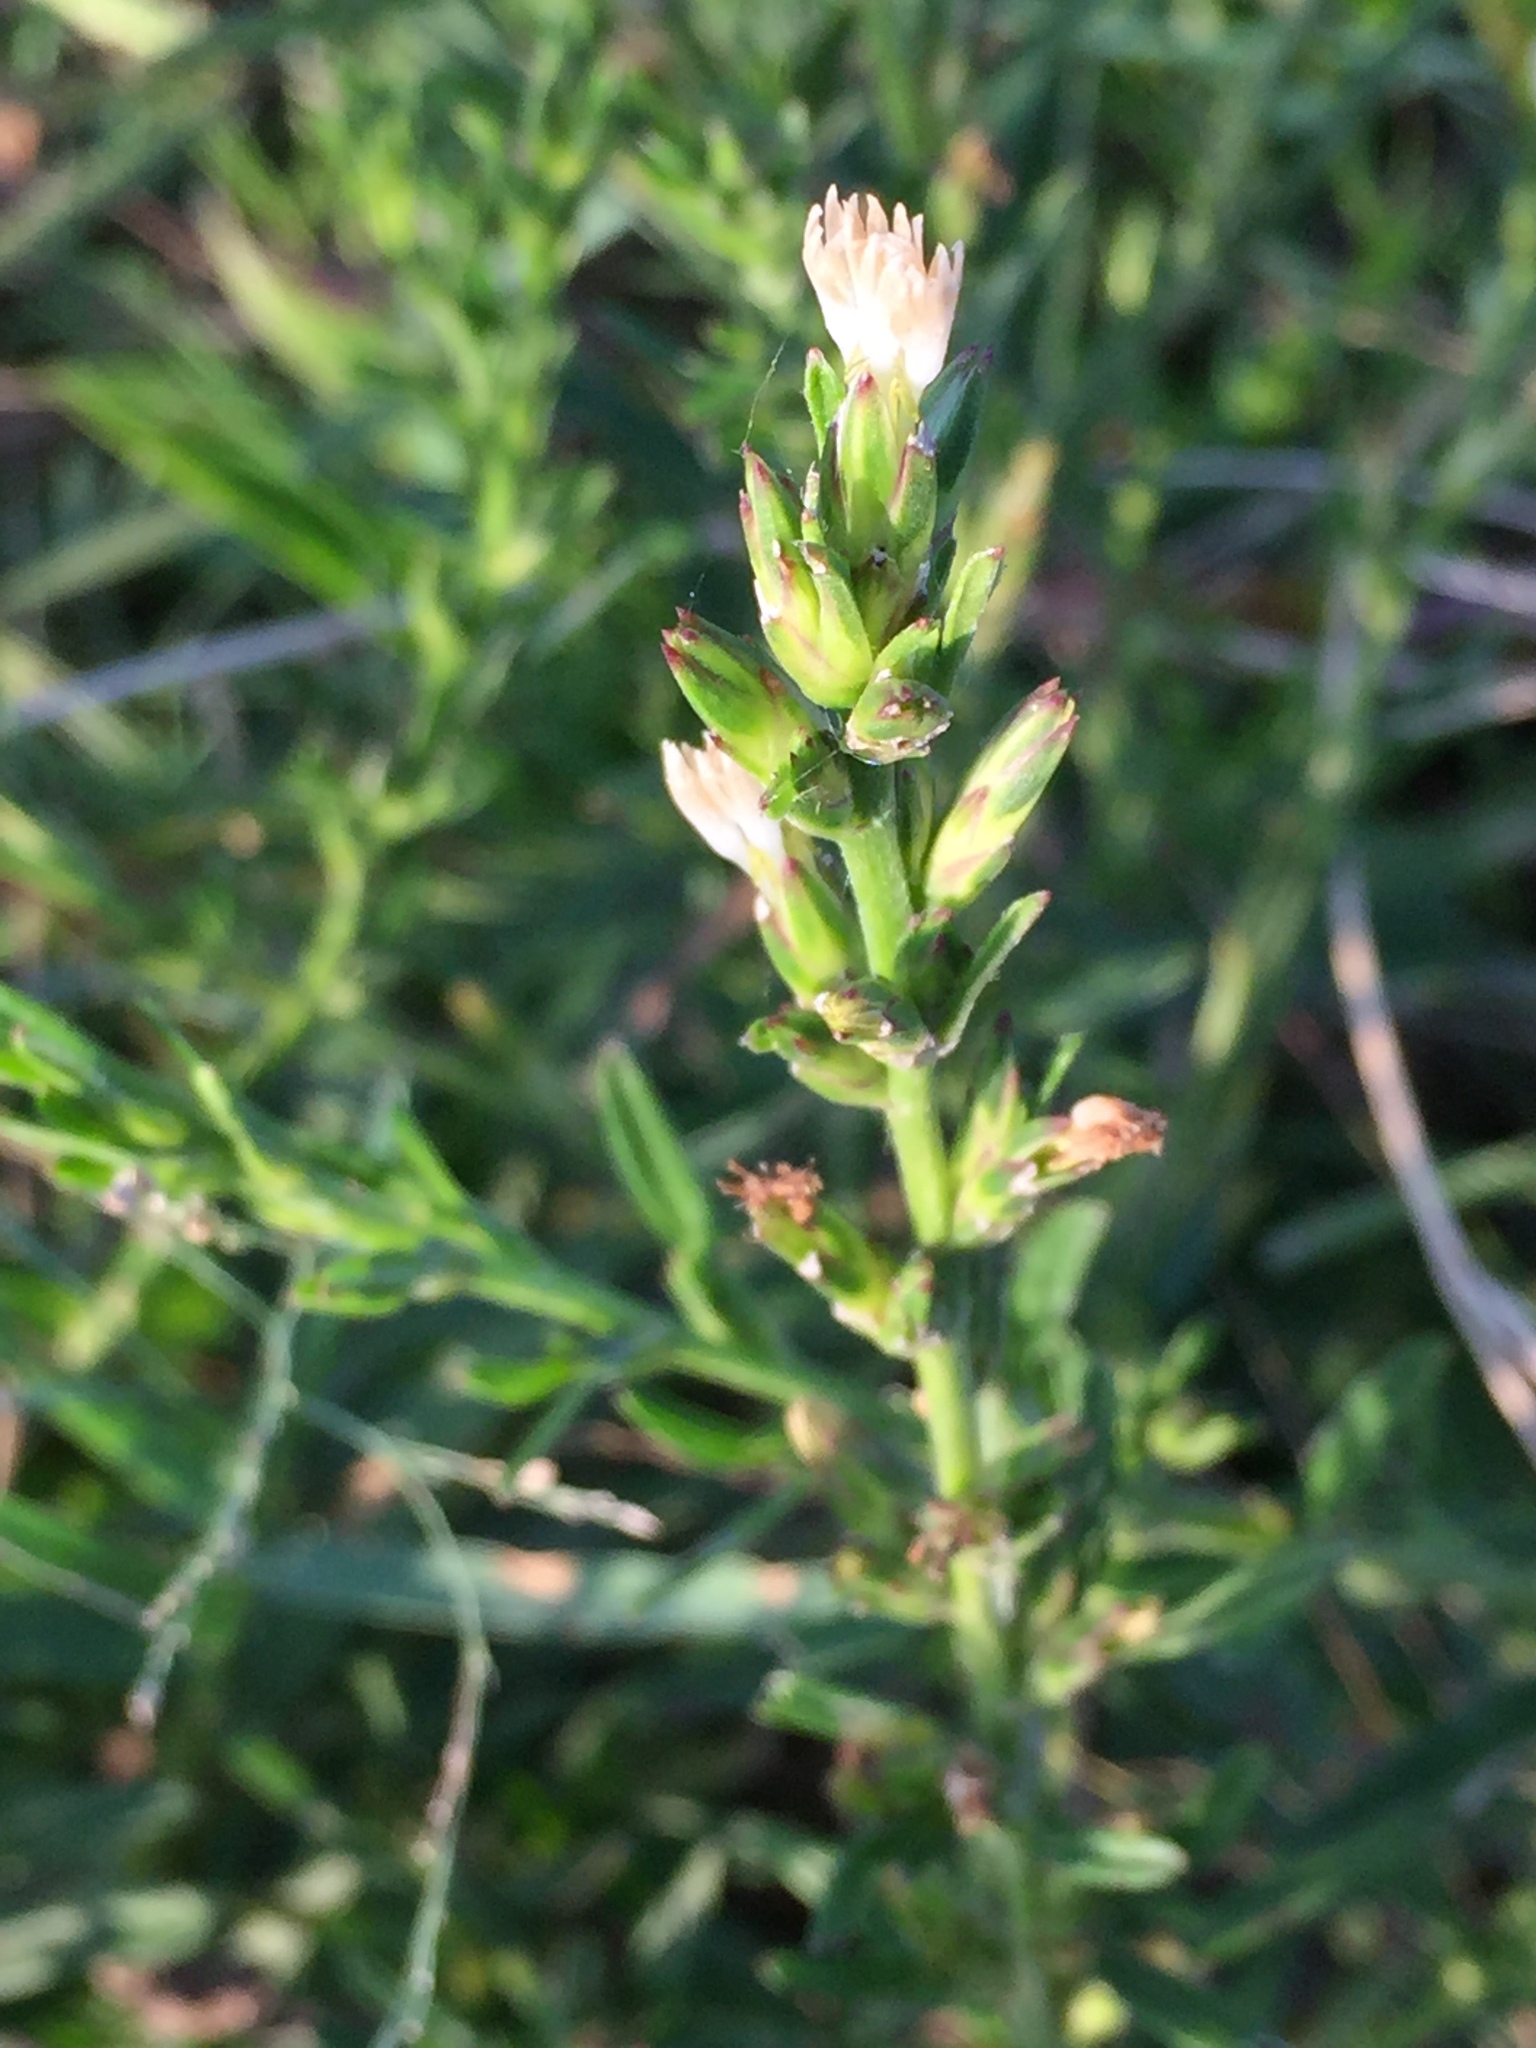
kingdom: Plantae
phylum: Tracheophyta
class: Magnoliopsida
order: Asterales
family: Asteraceae
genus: Pseudelephantopus
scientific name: Pseudelephantopus spicatus
